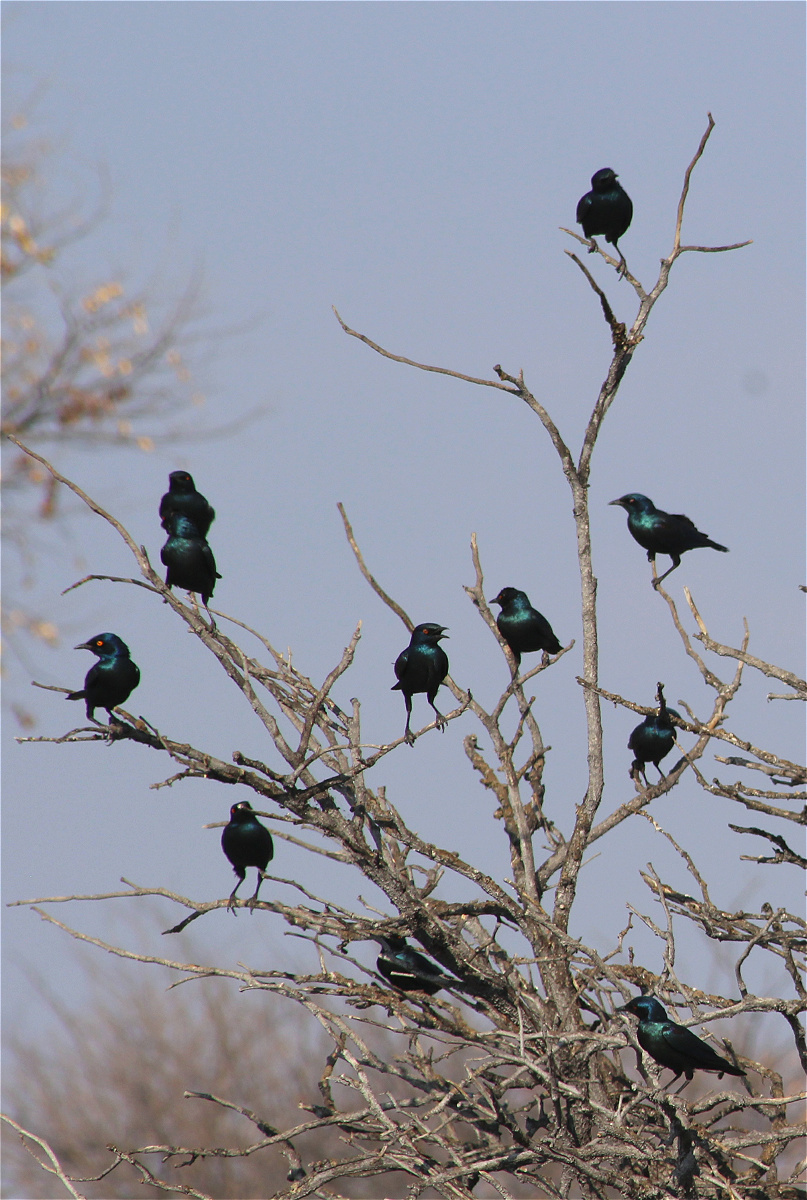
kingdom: Animalia
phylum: Chordata
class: Aves
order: Passeriformes
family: Sturnidae
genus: Lamprotornis
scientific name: Lamprotornis nitens
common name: Cape starling
